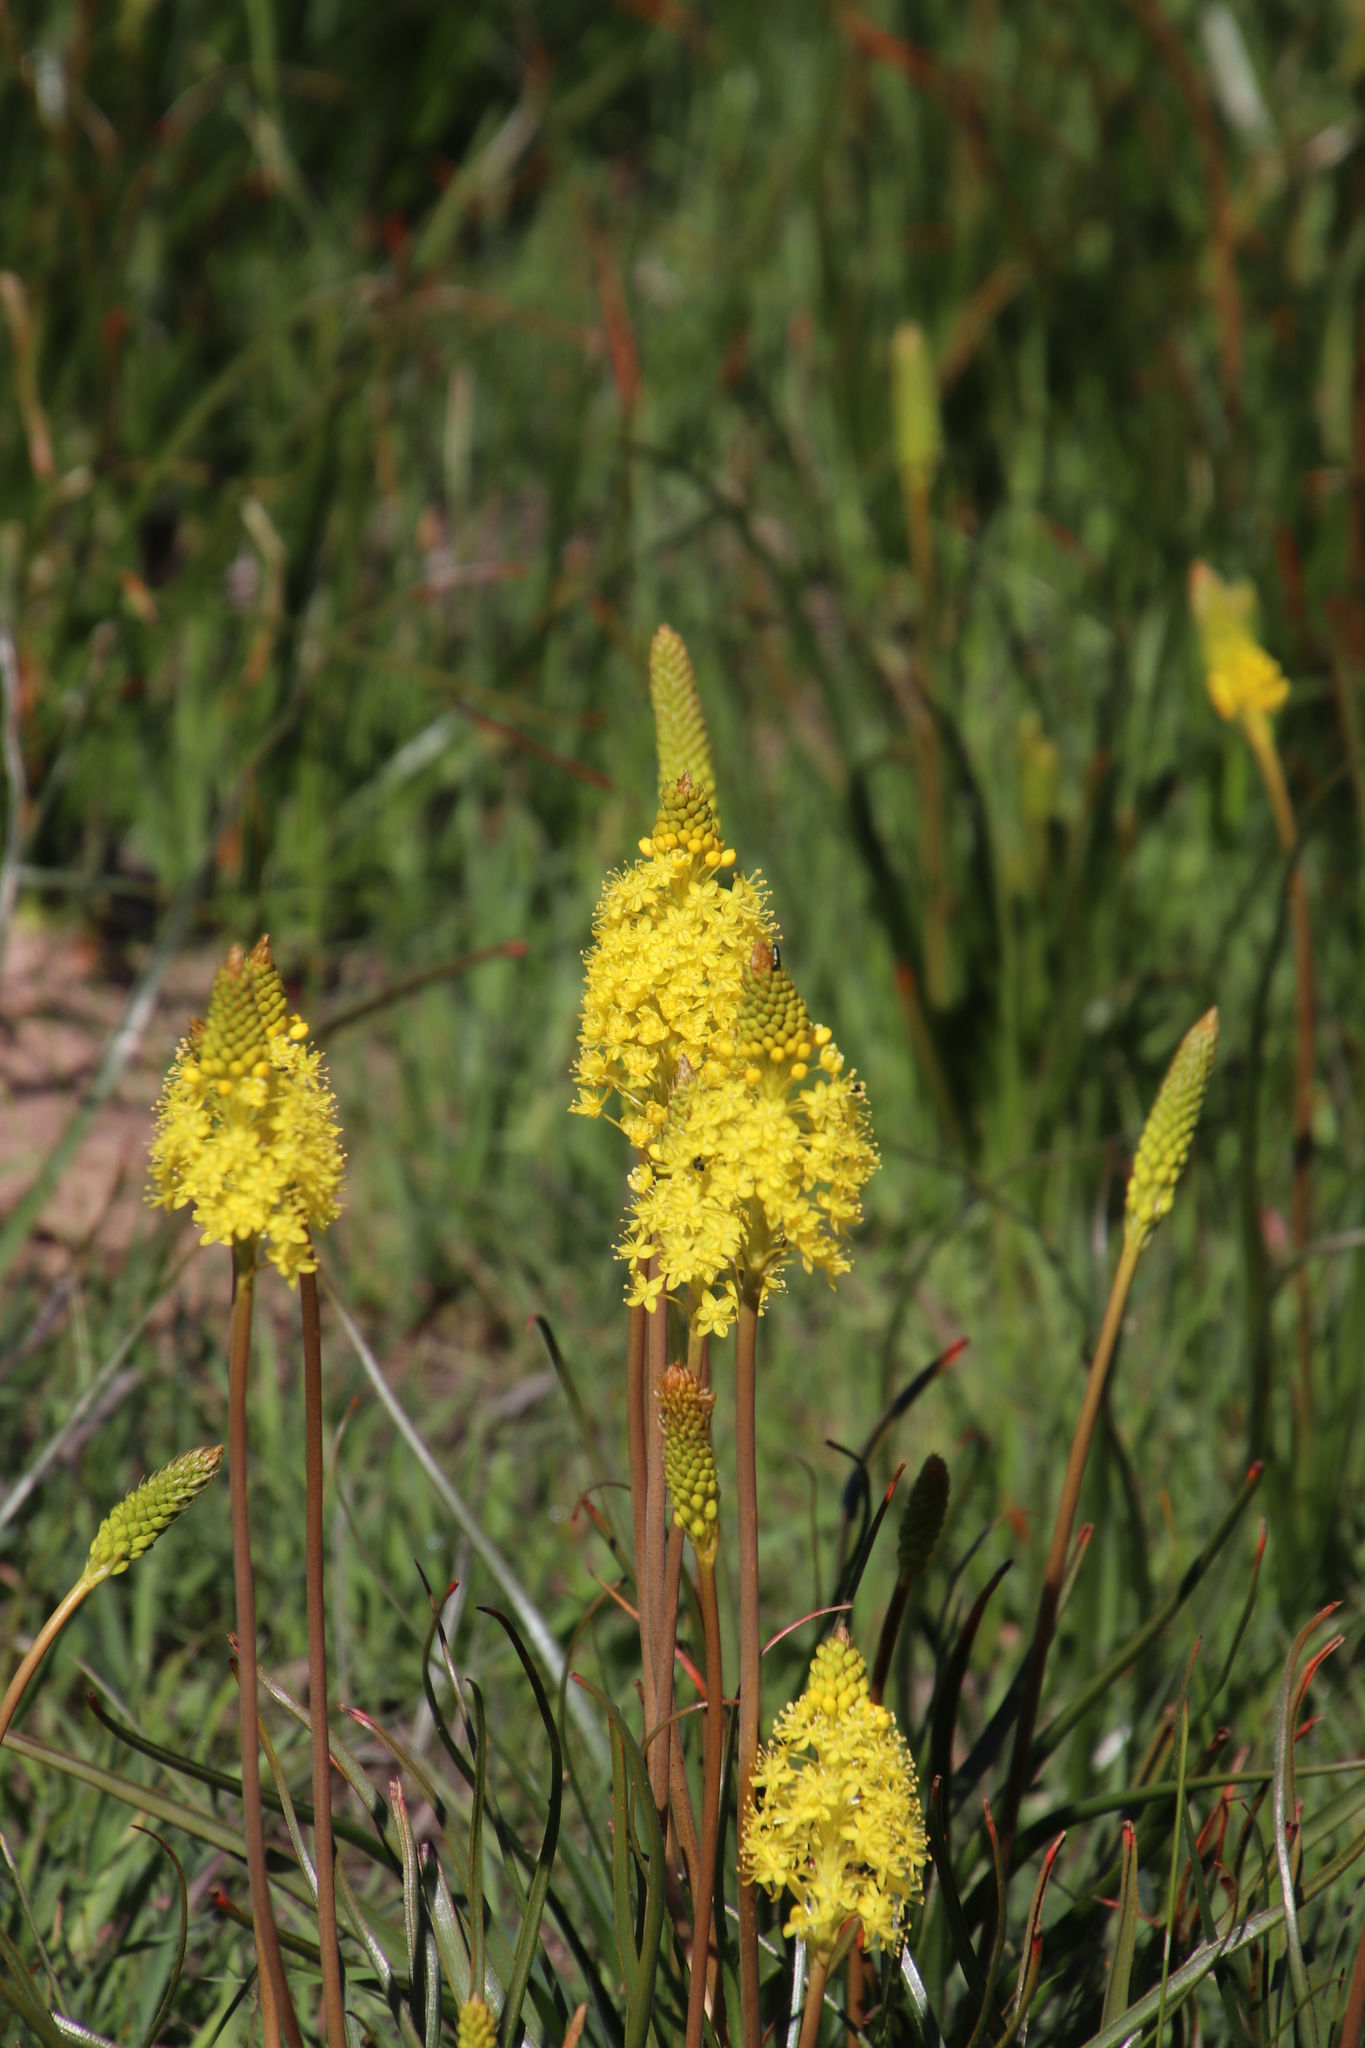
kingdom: Plantae
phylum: Tracheophyta
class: Liliopsida
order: Asparagales
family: Asphodelaceae
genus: Bulbinella
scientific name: Bulbinella nutans
